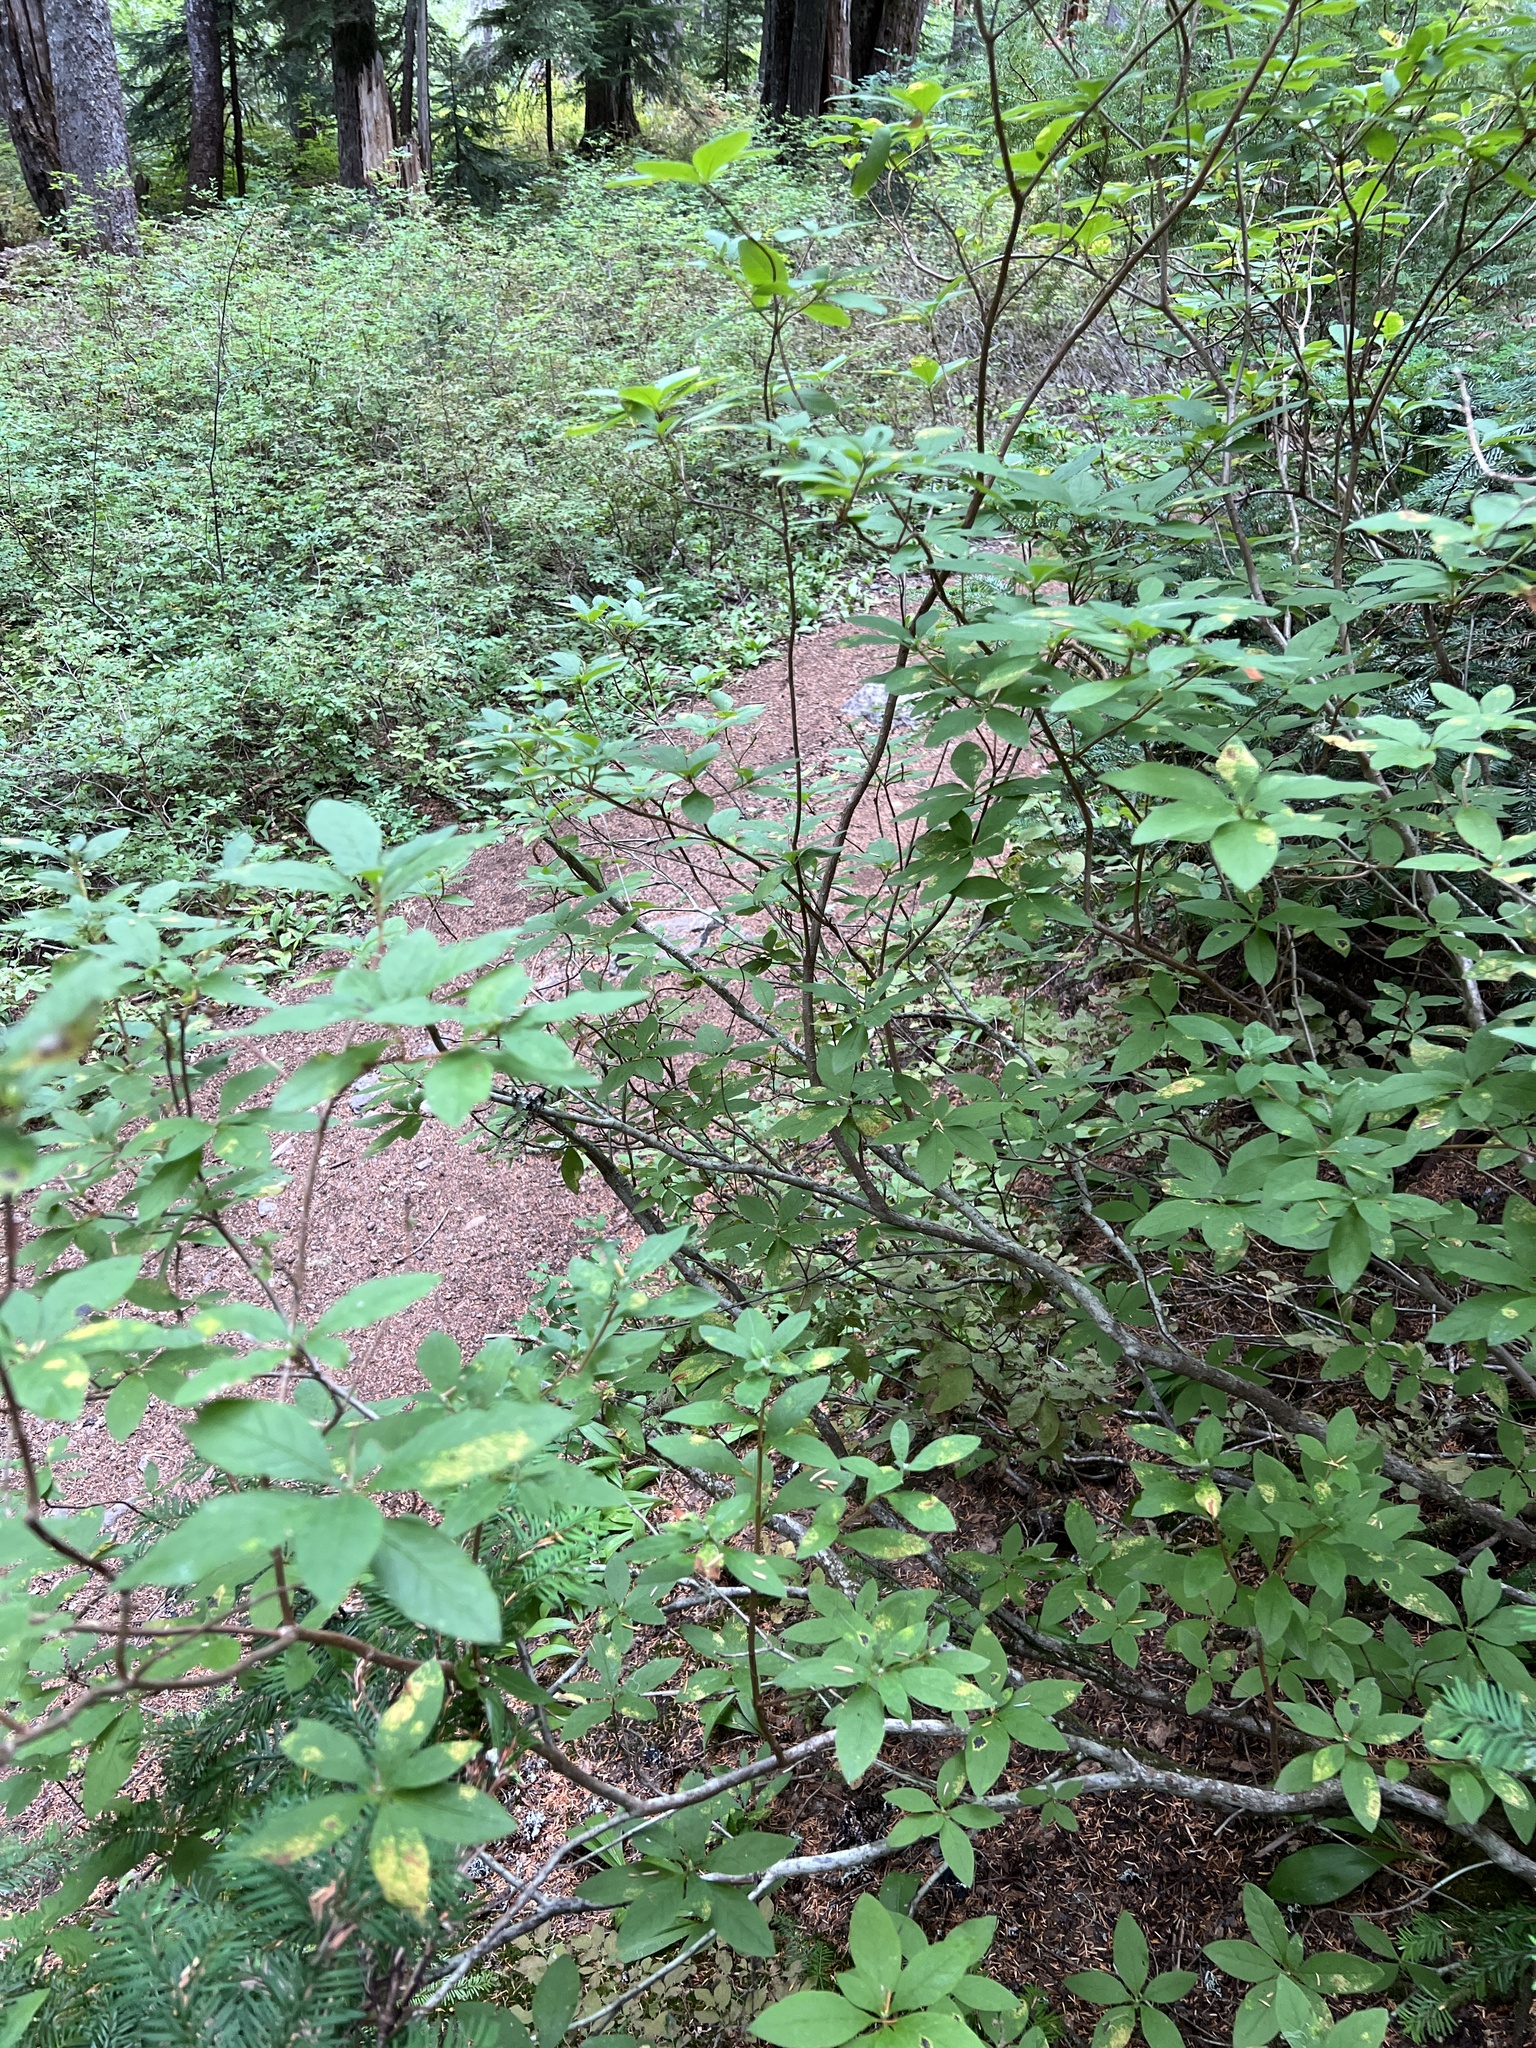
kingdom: Plantae
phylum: Tracheophyta
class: Magnoliopsida
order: Ericales
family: Ericaceae
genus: Rhododendron
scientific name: Rhododendron menziesii
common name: Pacific menziesia
